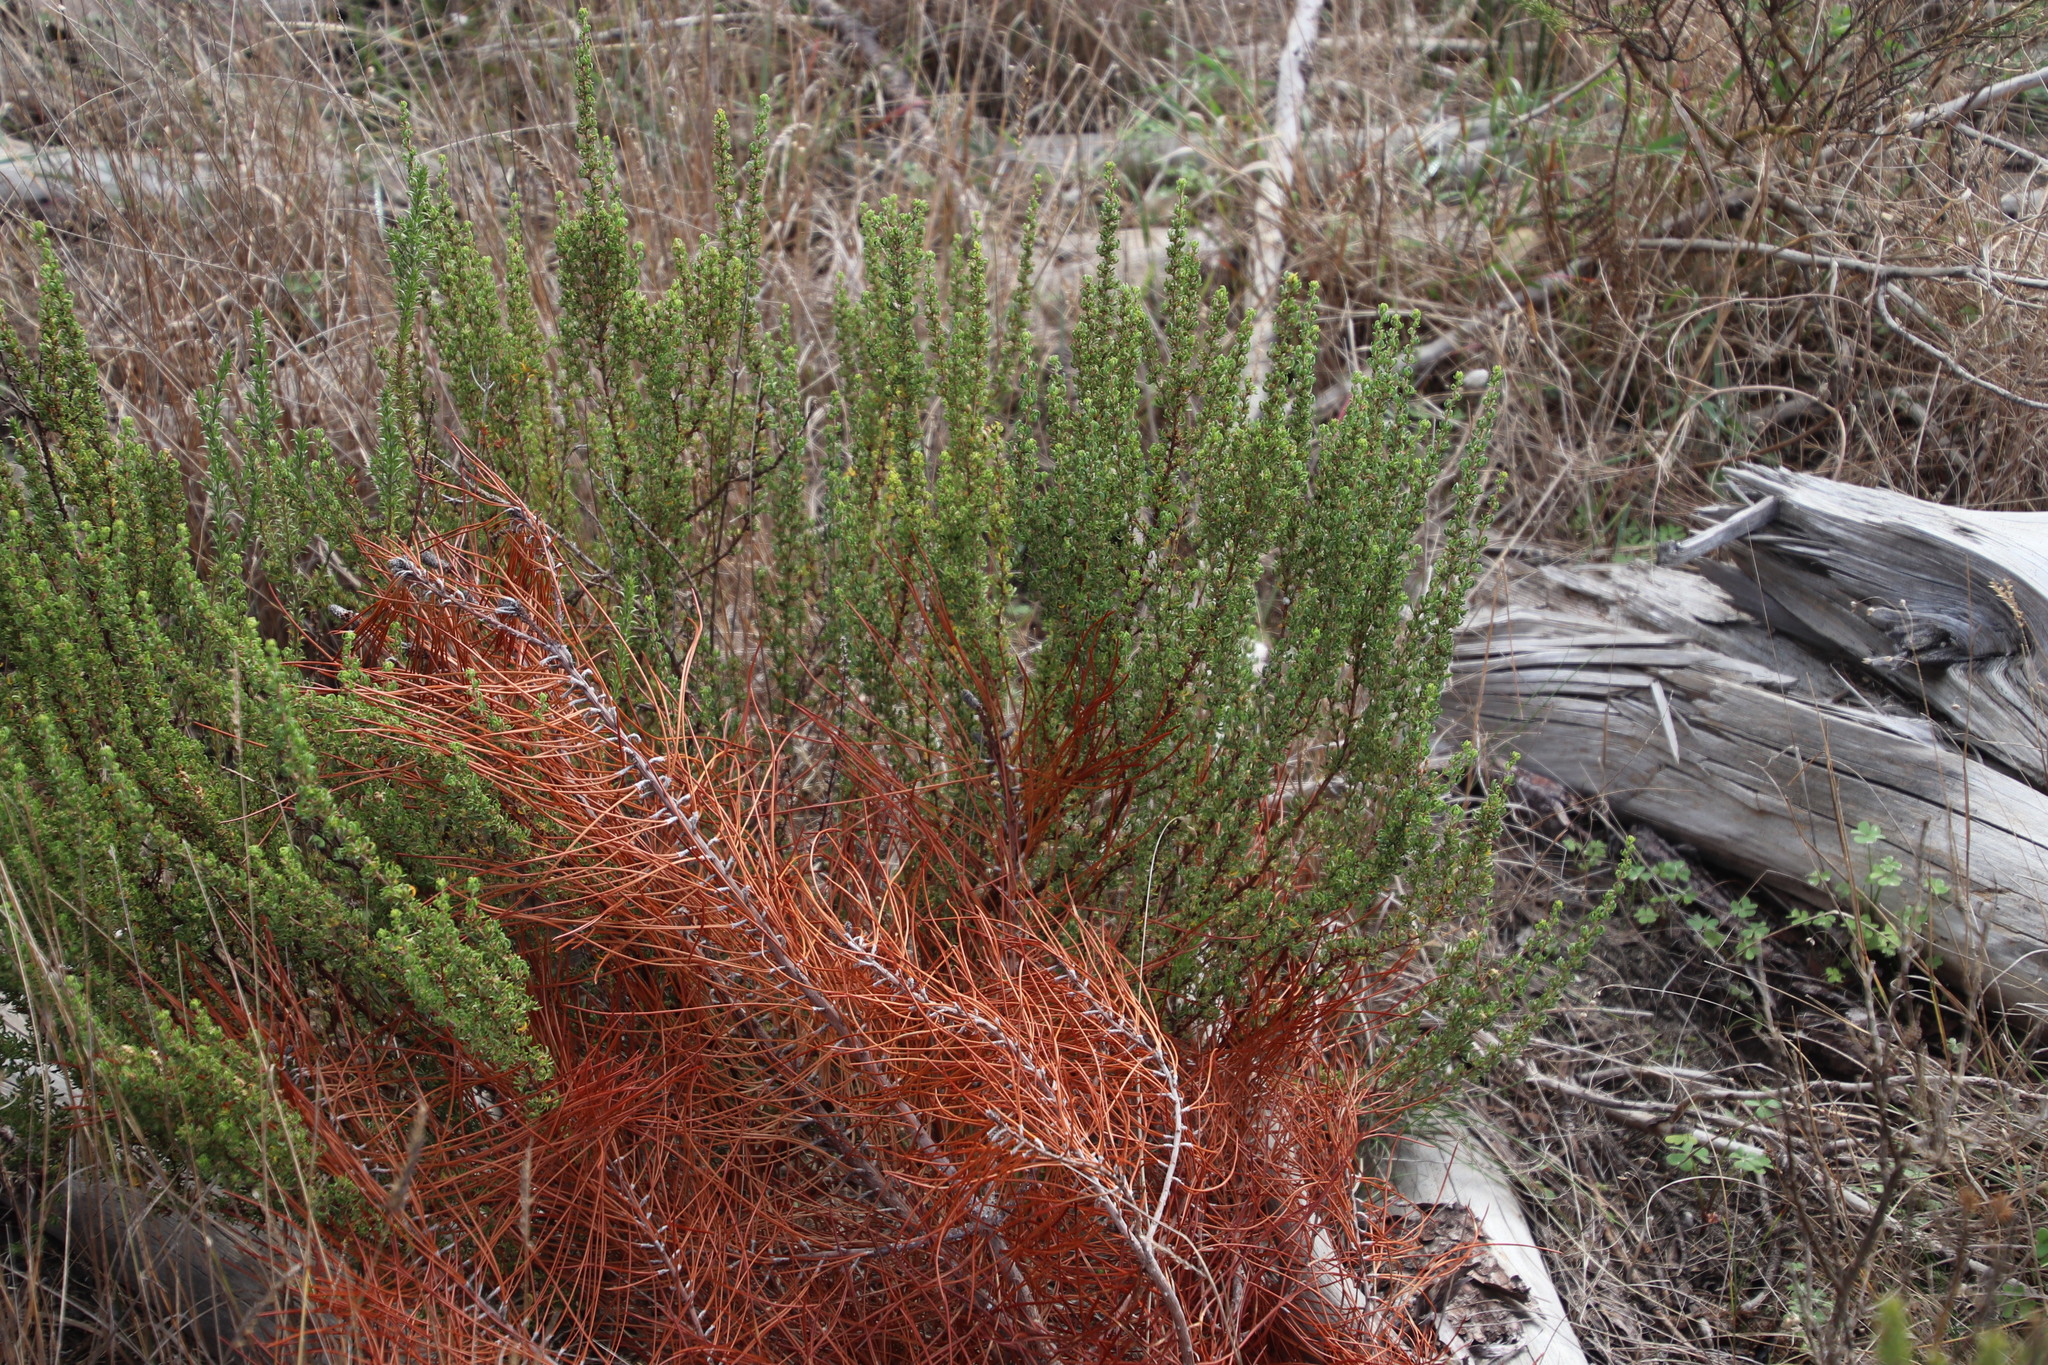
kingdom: Plantae
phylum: Tracheophyta
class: Magnoliopsida
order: Rosales
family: Rosaceae
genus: Cliffortia
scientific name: Cliffortia falcata
